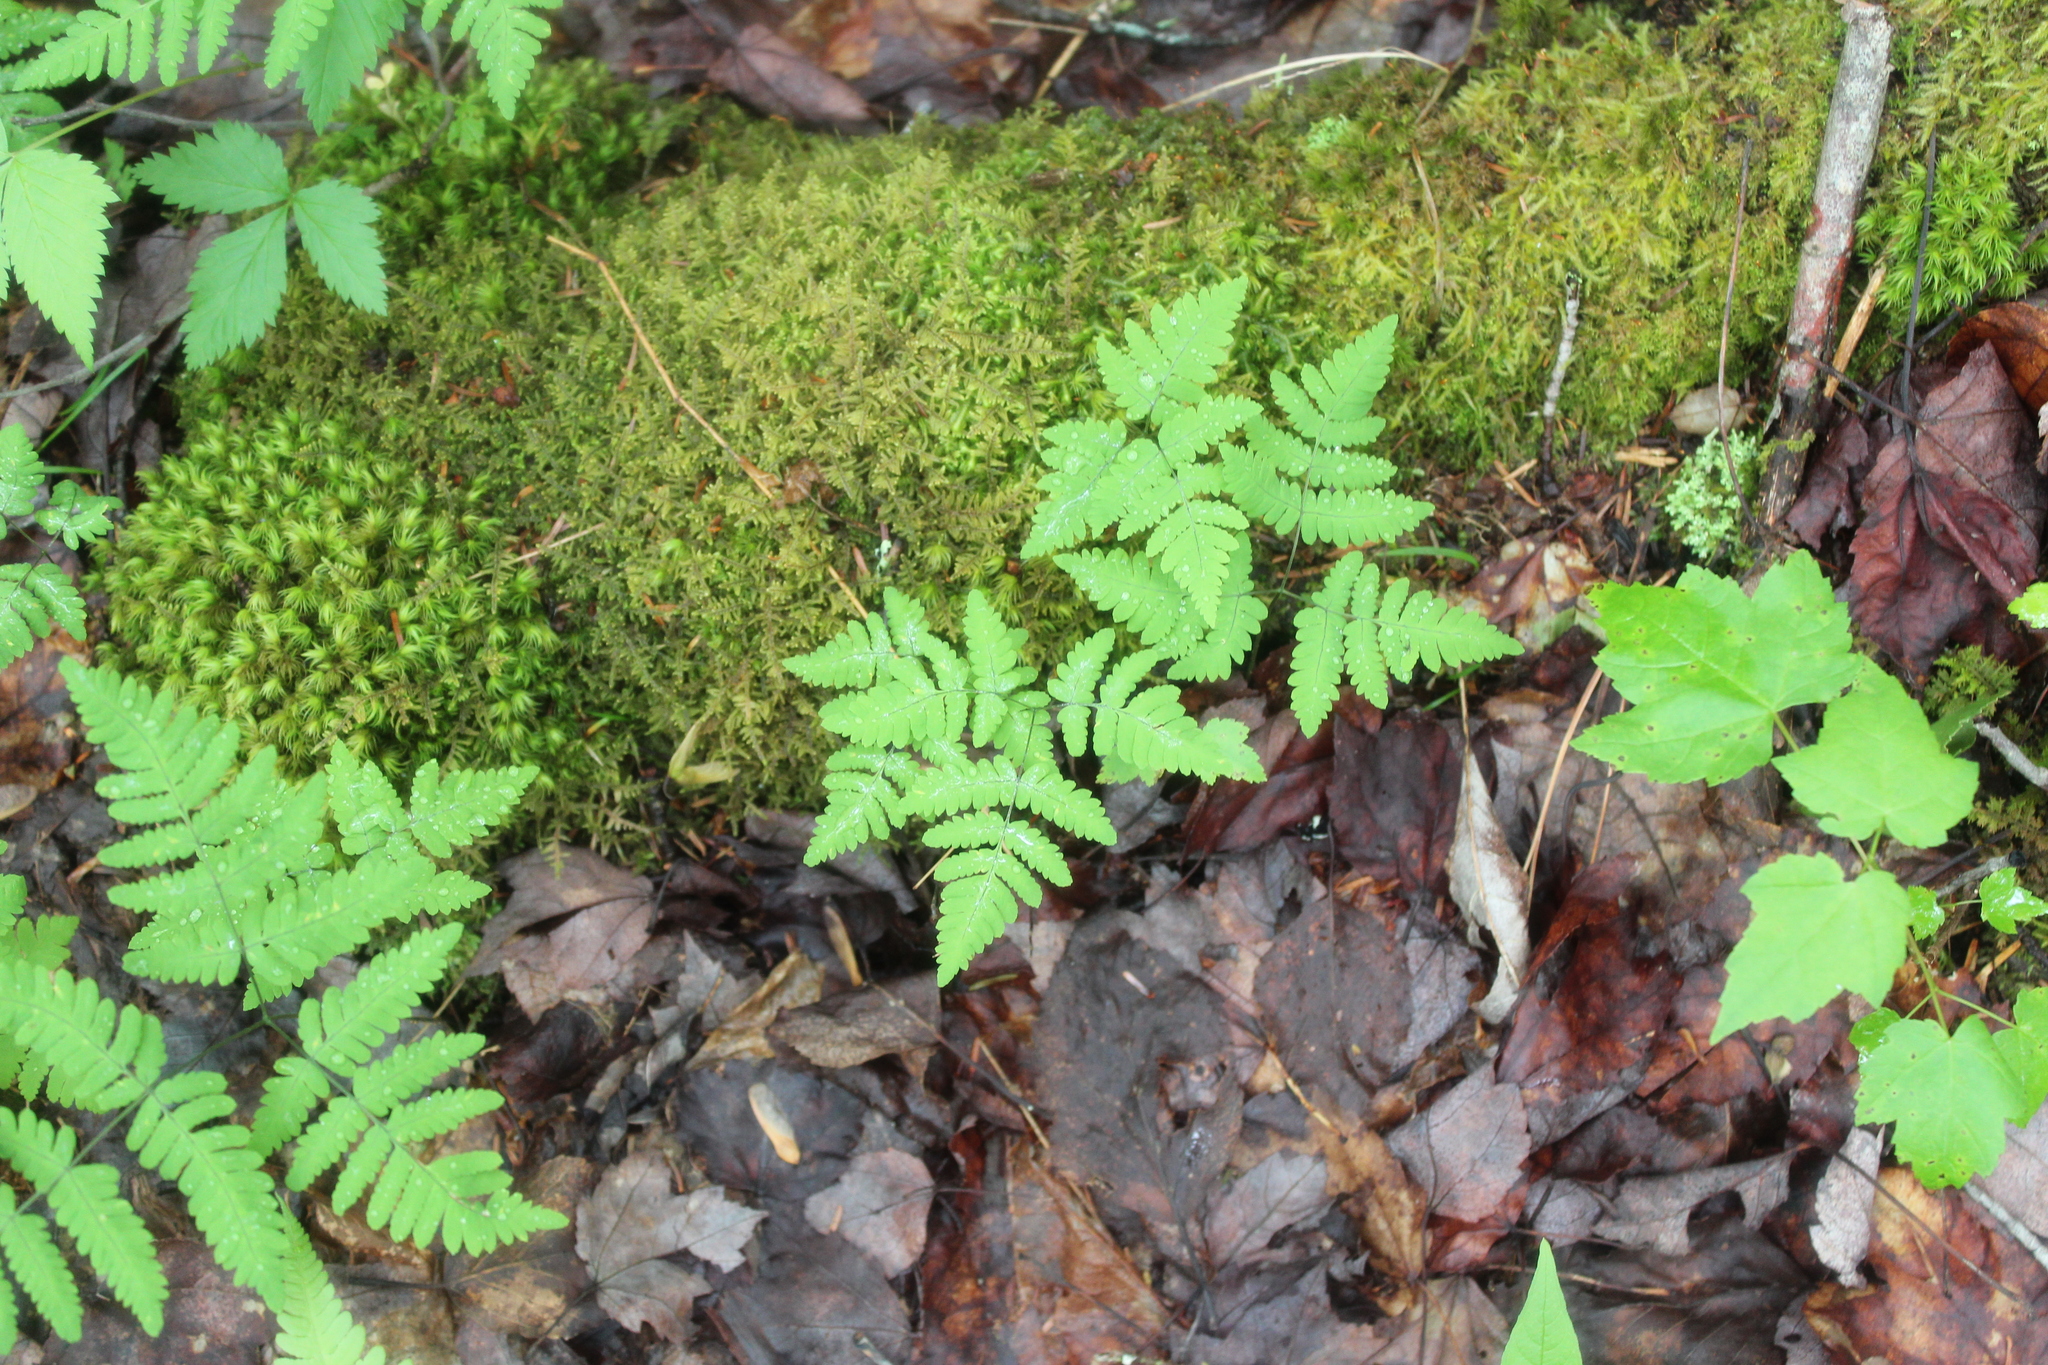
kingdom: Plantae
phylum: Tracheophyta
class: Polypodiopsida
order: Polypodiales
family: Cystopteridaceae
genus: Gymnocarpium
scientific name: Gymnocarpium dryopteris
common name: Oak fern
